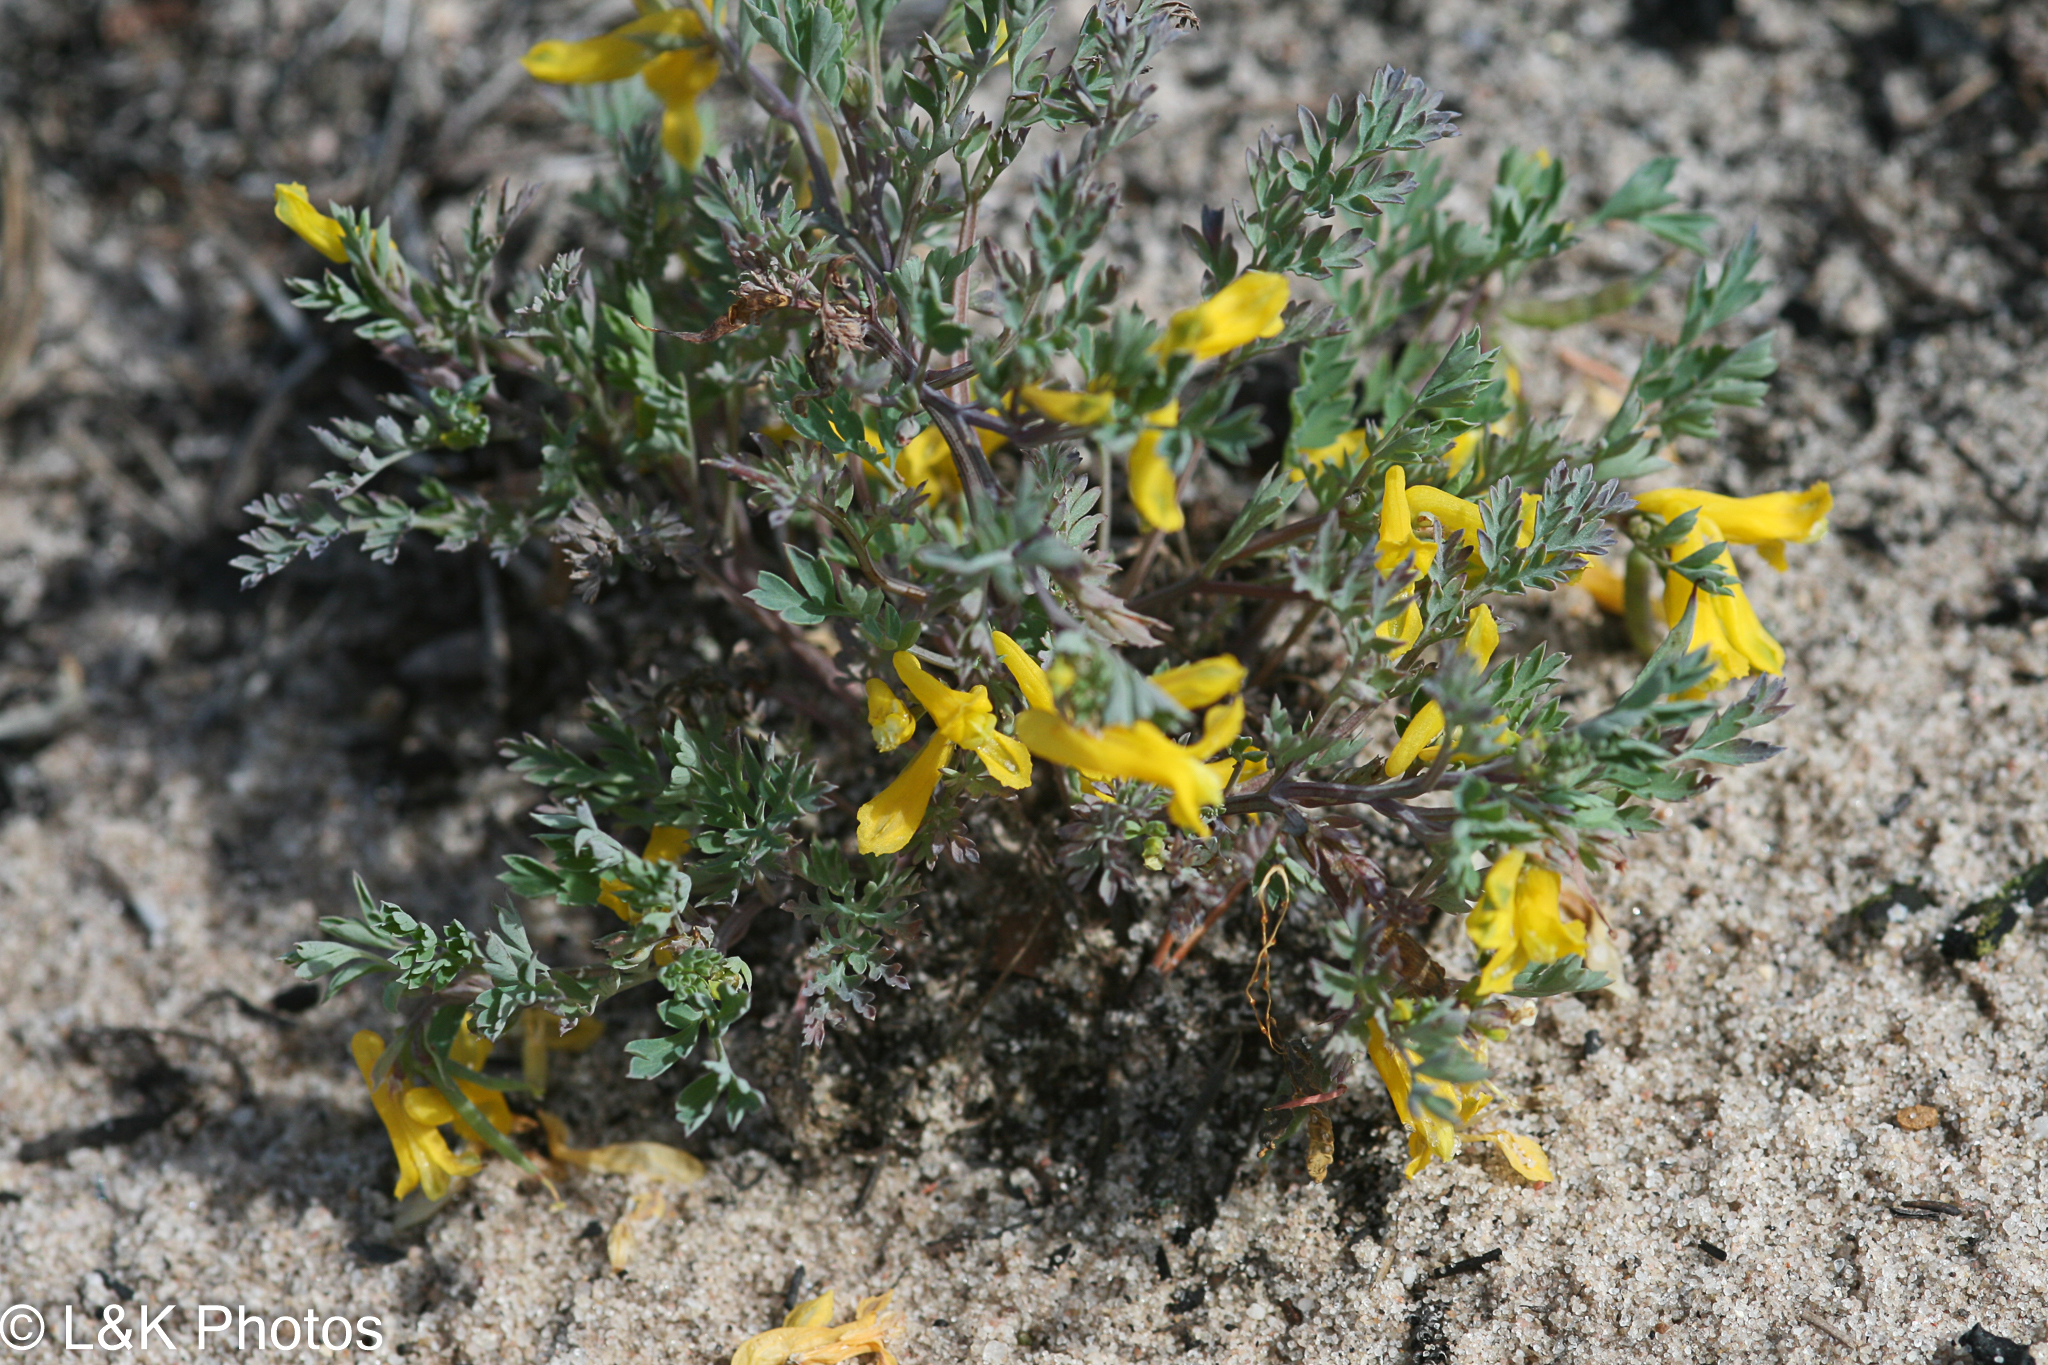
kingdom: Plantae
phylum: Tracheophyta
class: Magnoliopsida
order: Ranunculales
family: Papaveraceae
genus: Corydalis
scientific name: Corydalis aurea
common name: Golden corydalis
